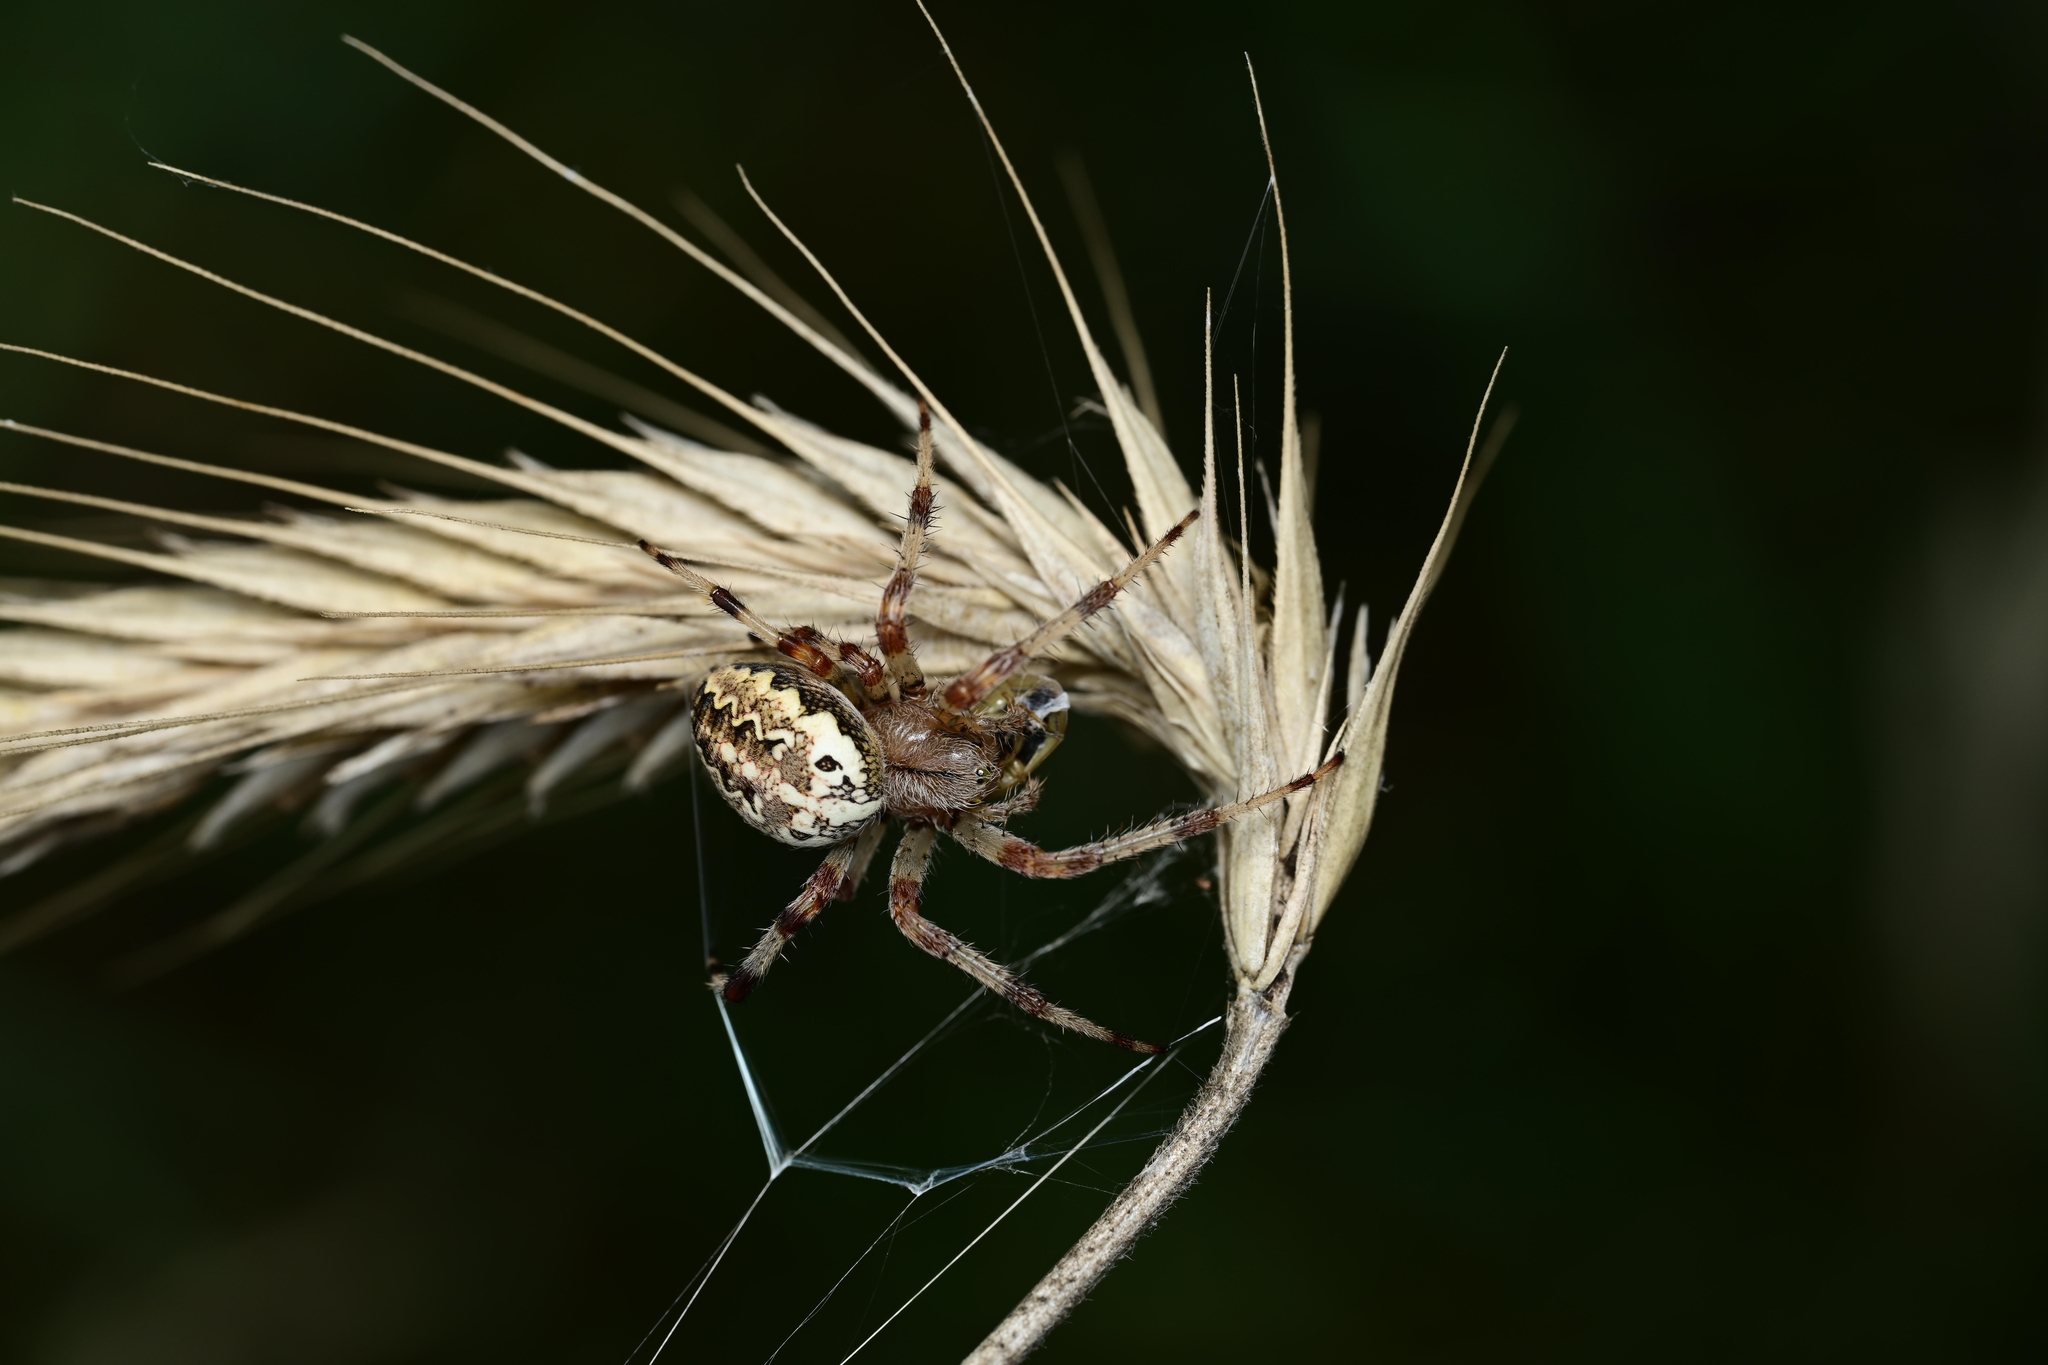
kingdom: Animalia
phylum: Arthropoda
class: Arachnida
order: Araneae
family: Araneidae
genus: Araneus
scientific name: Araneus marmoreus
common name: Marbled orbweaver
